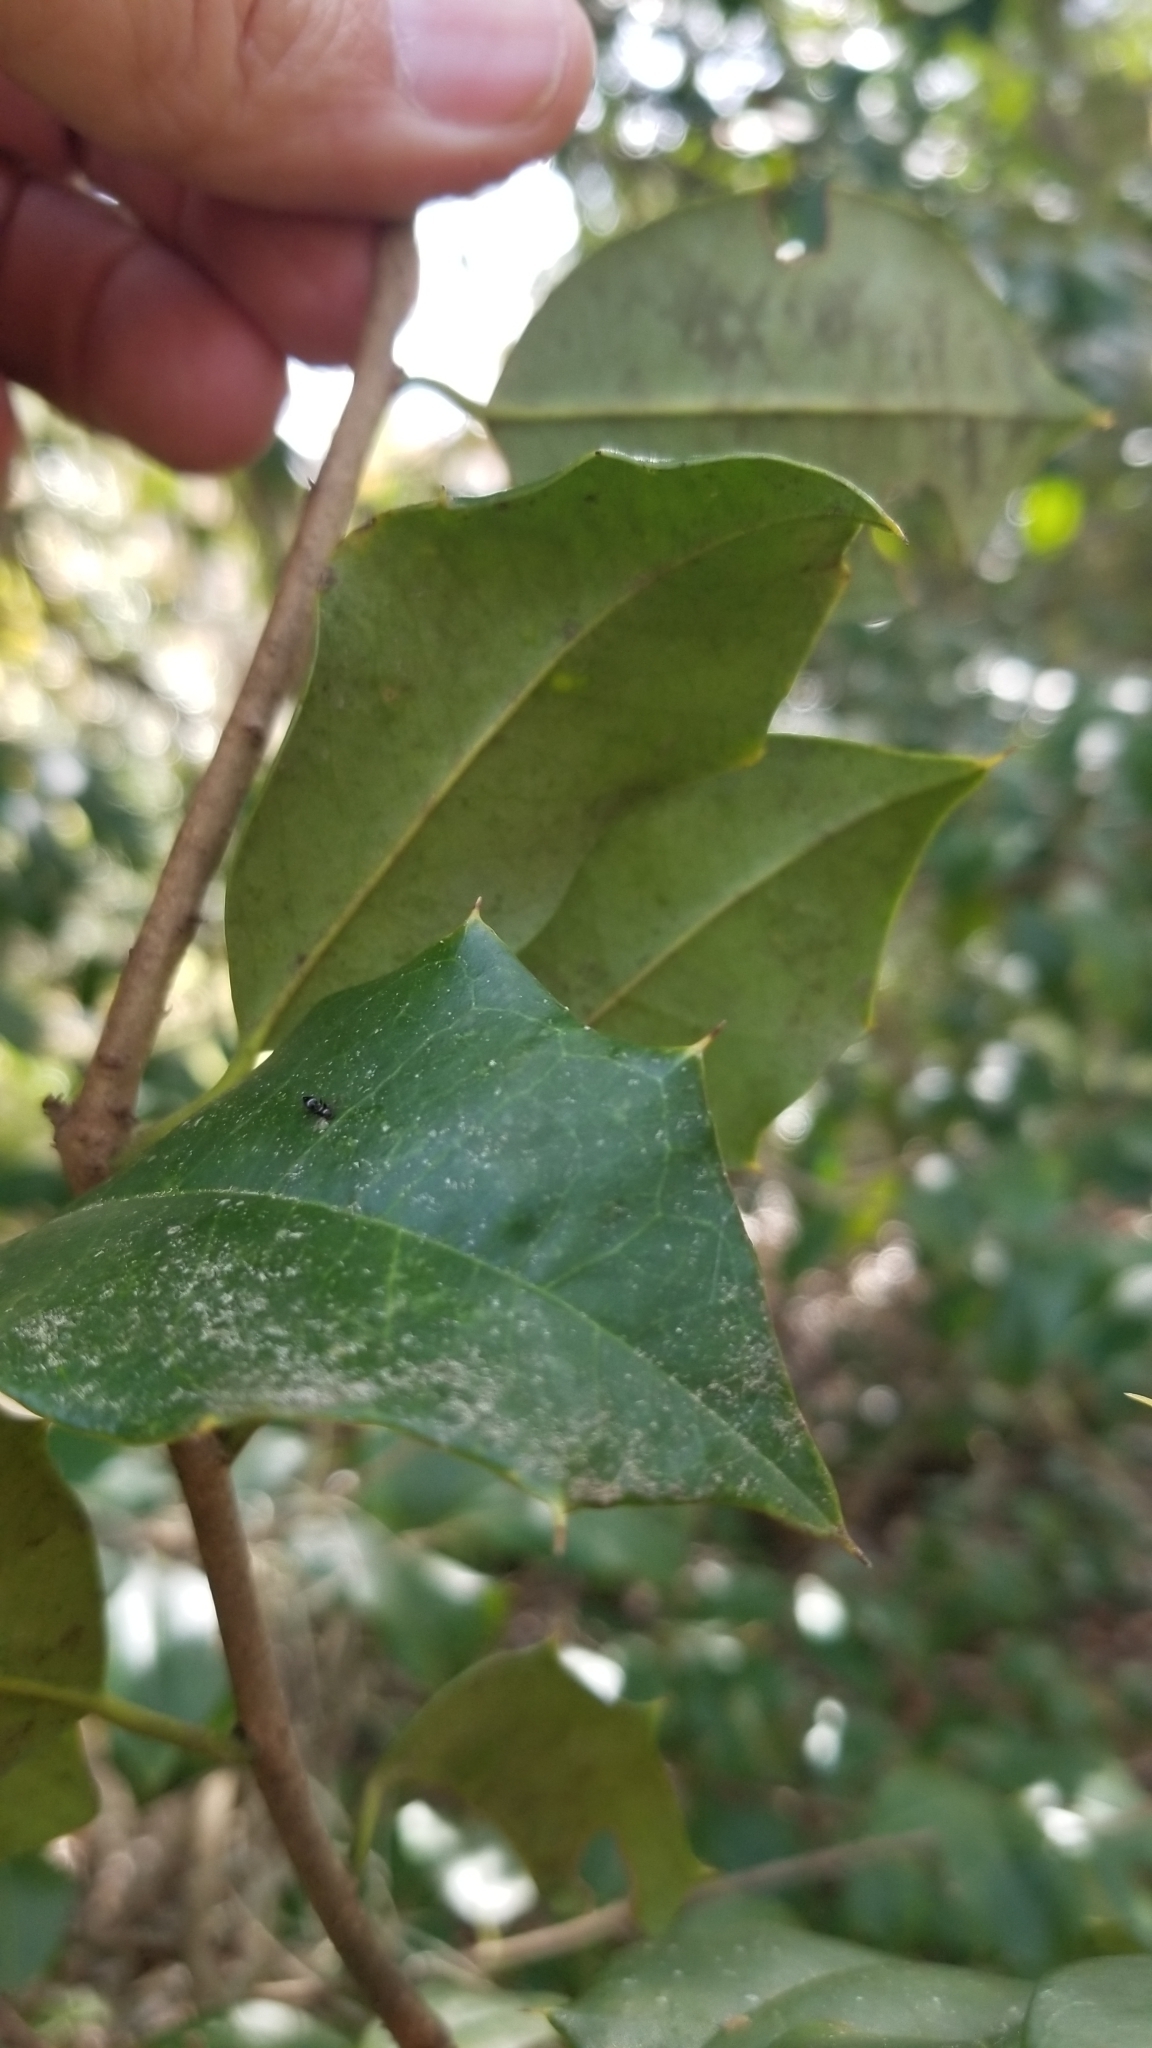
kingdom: Plantae
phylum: Tracheophyta
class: Magnoliopsida
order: Aquifoliales
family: Aquifoliaceae
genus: Ilex
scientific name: Ilex opaca
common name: American holly
